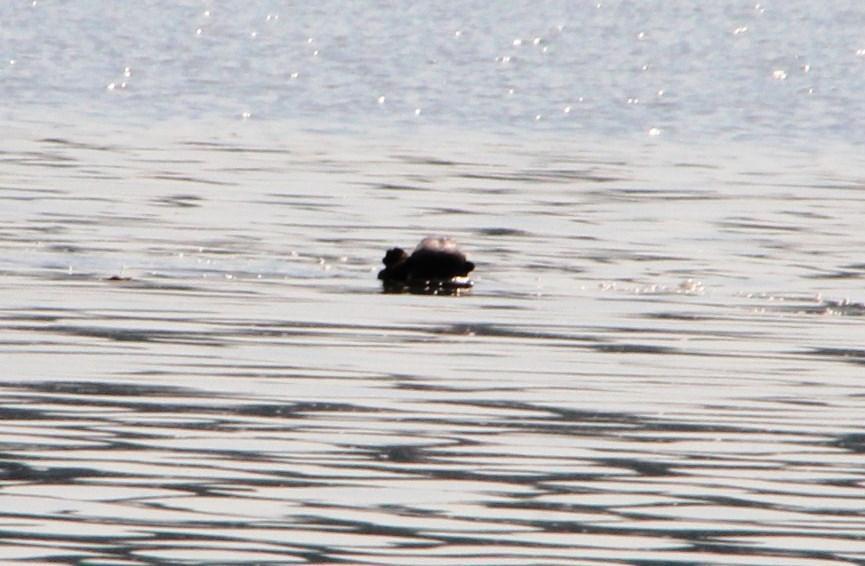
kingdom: Animalia
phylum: Chordata
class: Mammalia
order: Carnivora
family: Mustelidae
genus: Pteronura
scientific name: Pteronura brasiliensis
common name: Giant otter
